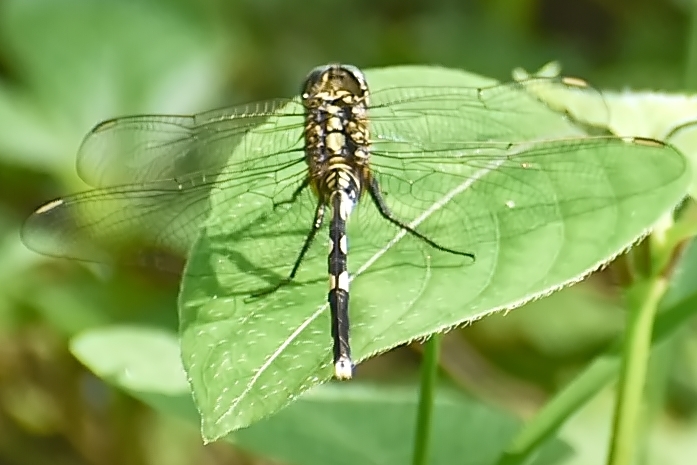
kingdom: Animalia
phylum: Arthropoda
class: Insecta
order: Odonata
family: Libellulidae
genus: Orthetrum
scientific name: Orthetrum sabina
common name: Slender skimmer
